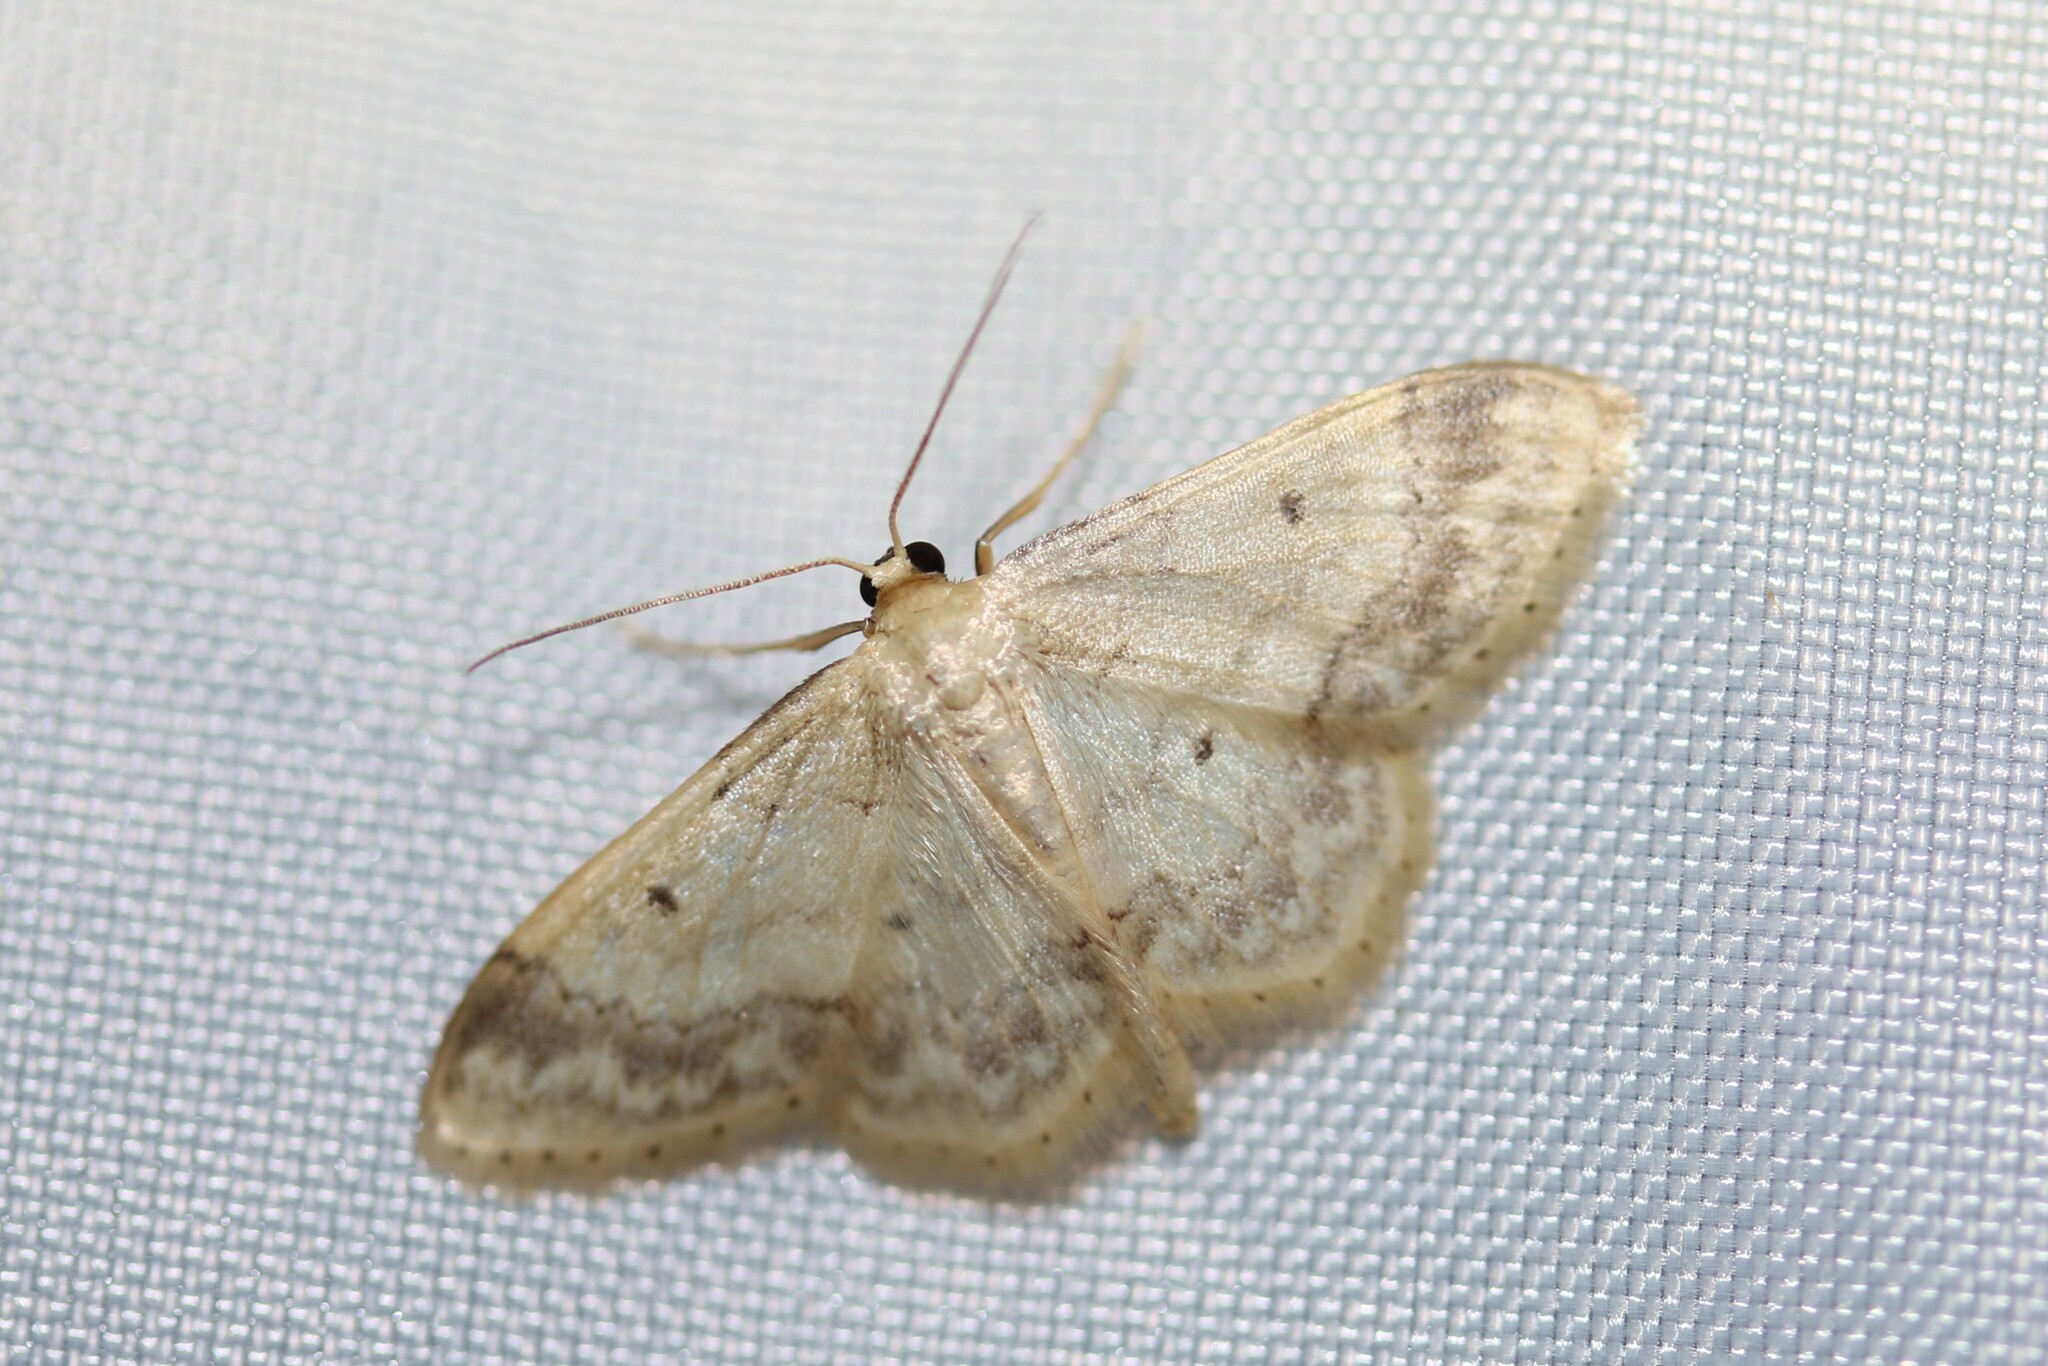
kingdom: Animalia
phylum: Arthropoda
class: Insecta
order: Lepidoptera
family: Geometridae
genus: Idaea
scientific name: Idaea biselata
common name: Small fan-footed wave
